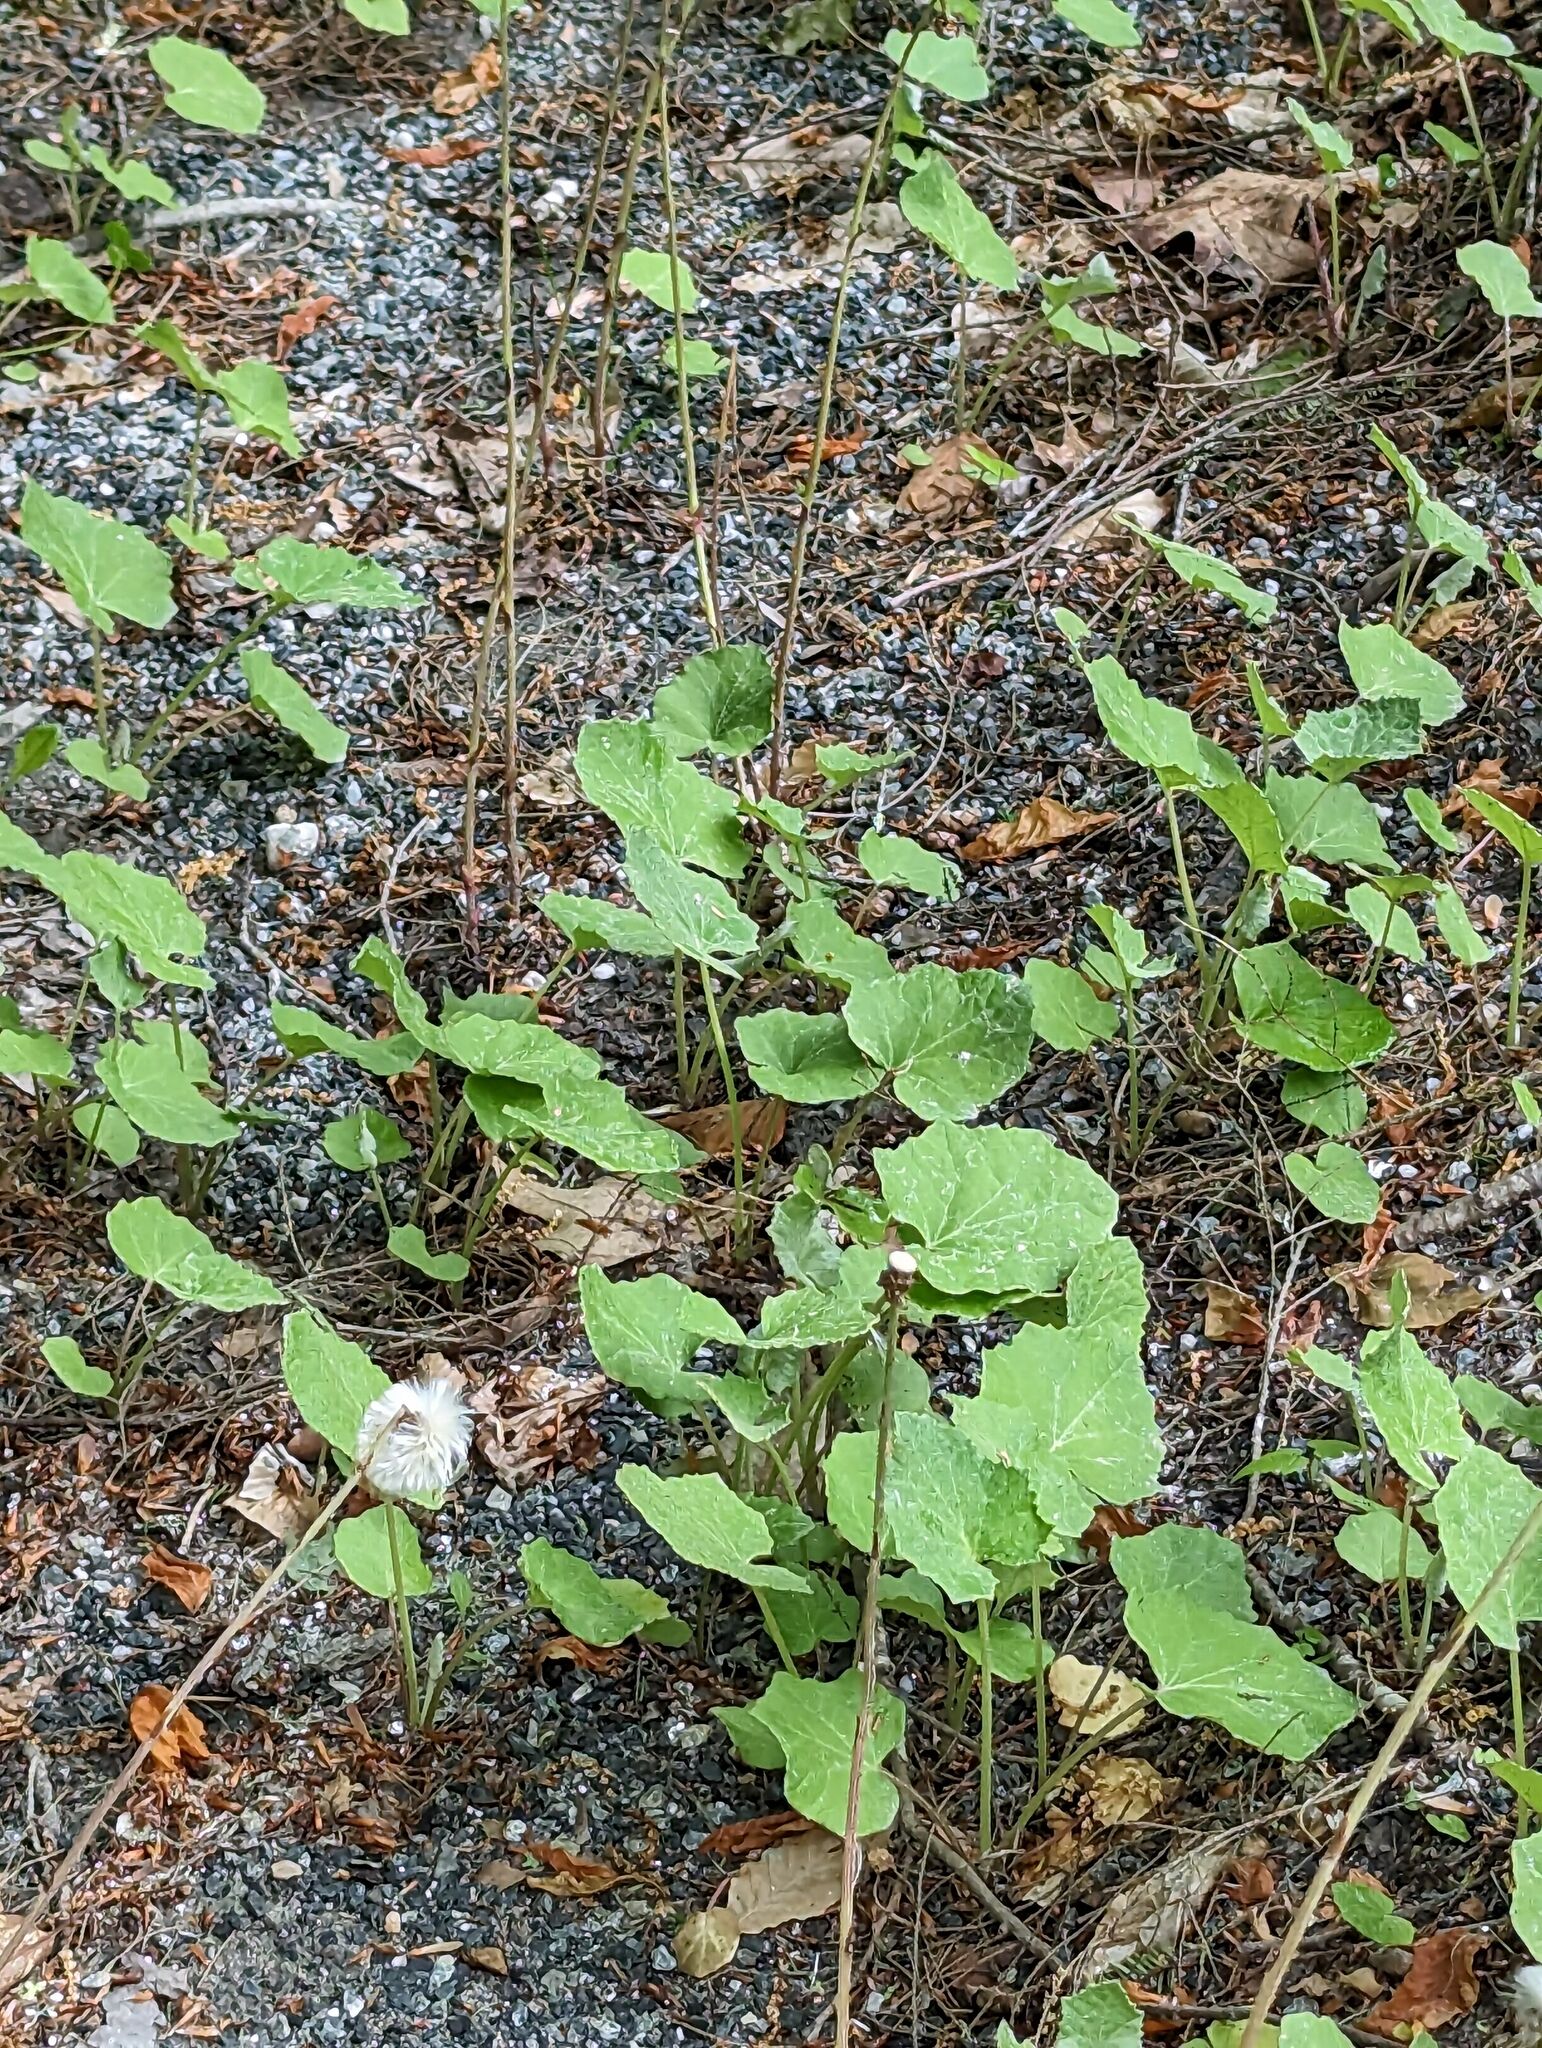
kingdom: Plantae
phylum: Tracheophyta
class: Magnoliopsida
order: Asterales
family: Asteraceae
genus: Tussilago
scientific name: Tussilago farfara
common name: Coltsfoot
